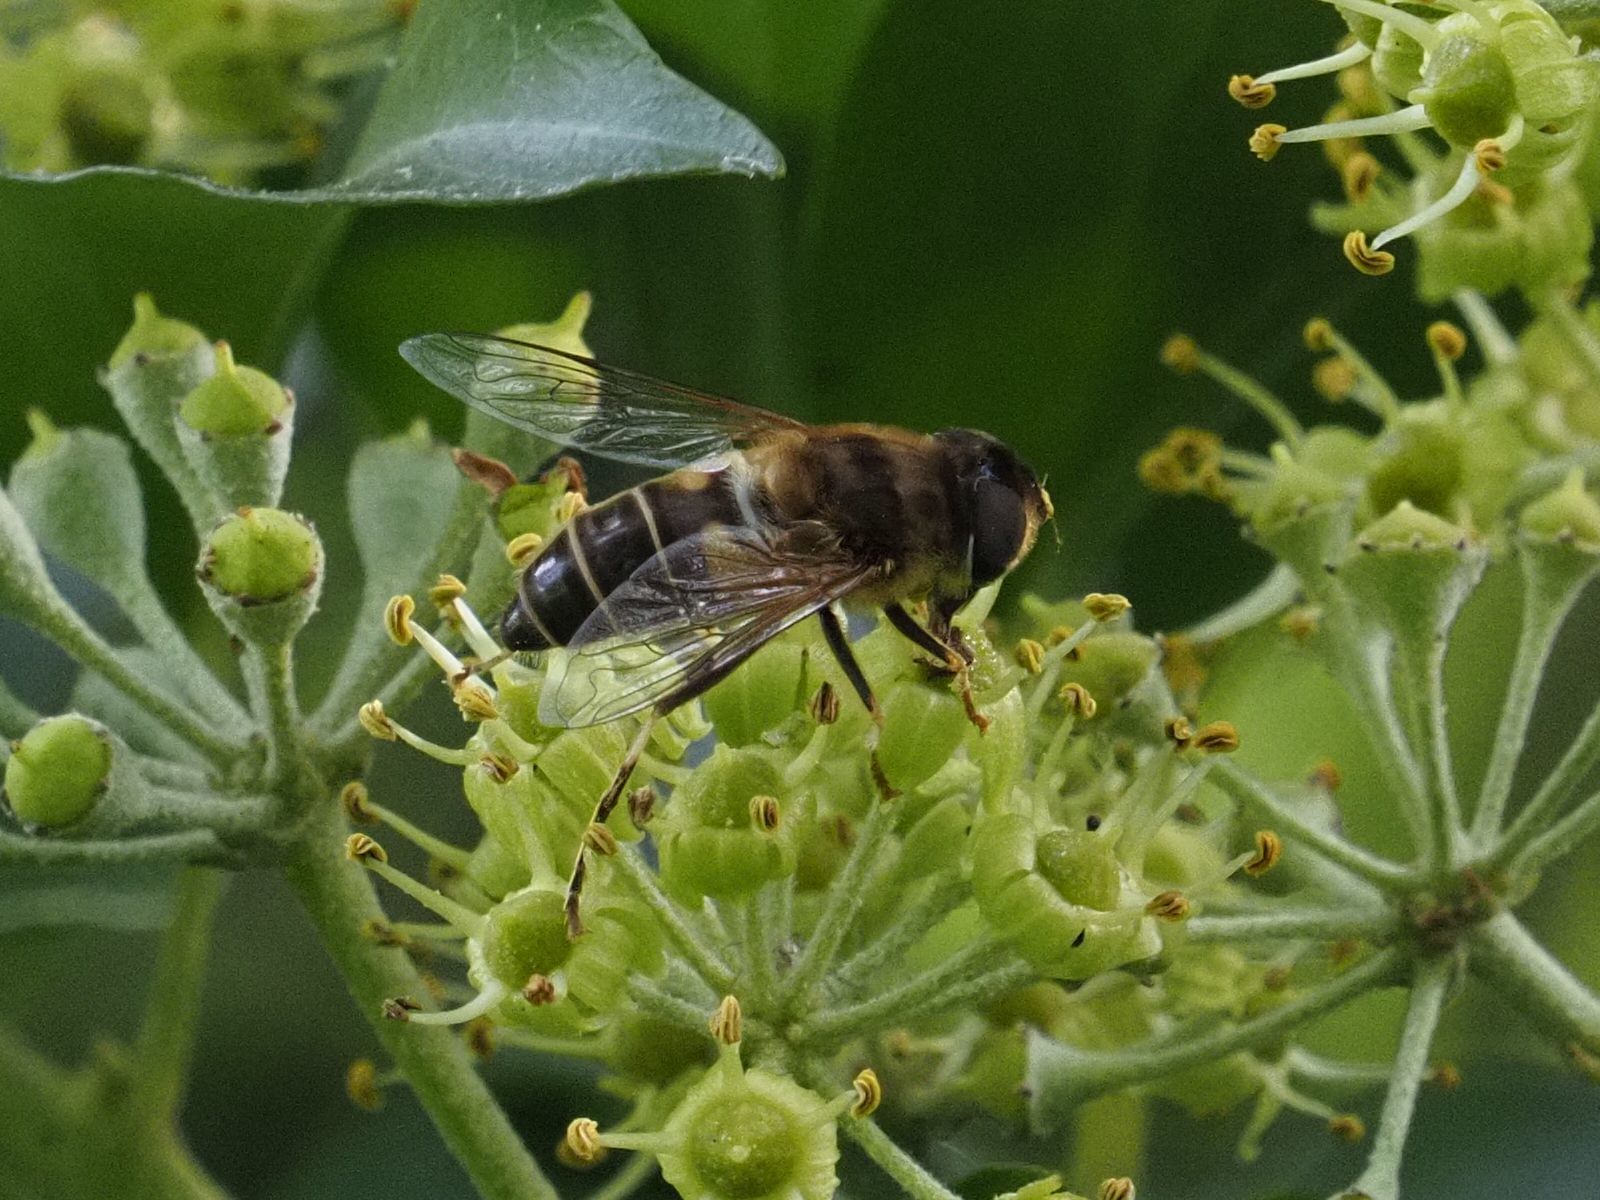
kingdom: Animalia
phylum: Arthropoda
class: Insecta
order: Diptera
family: Syrphidae
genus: Eristalis
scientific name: Eristalis pertinax
